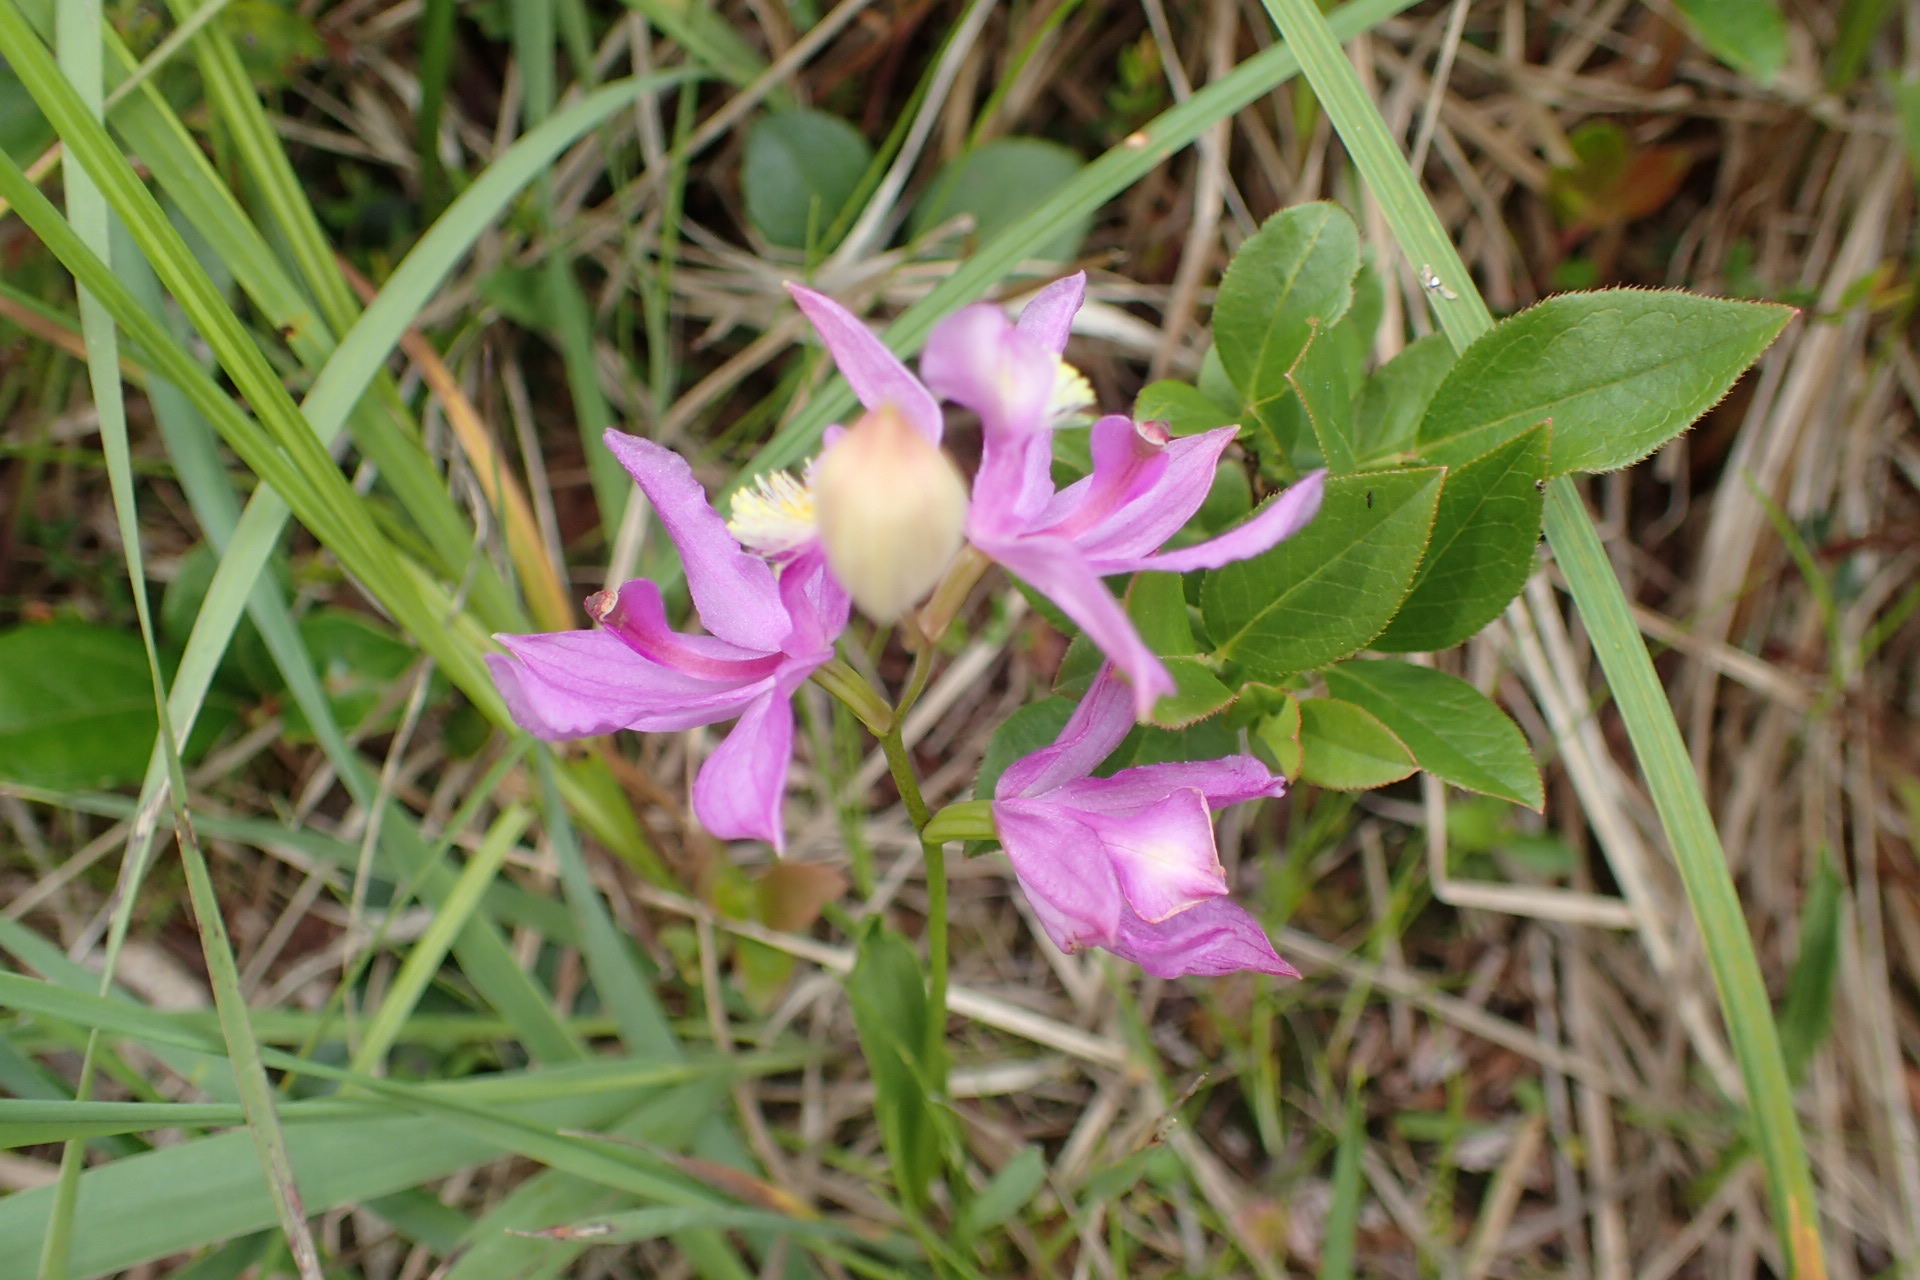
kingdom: Plantae
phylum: Tracheophyta
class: Liliopsida
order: Asparagales
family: Orchidaceae
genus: Calopogon
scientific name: Calopogon tuberosus
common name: Grass-pink
